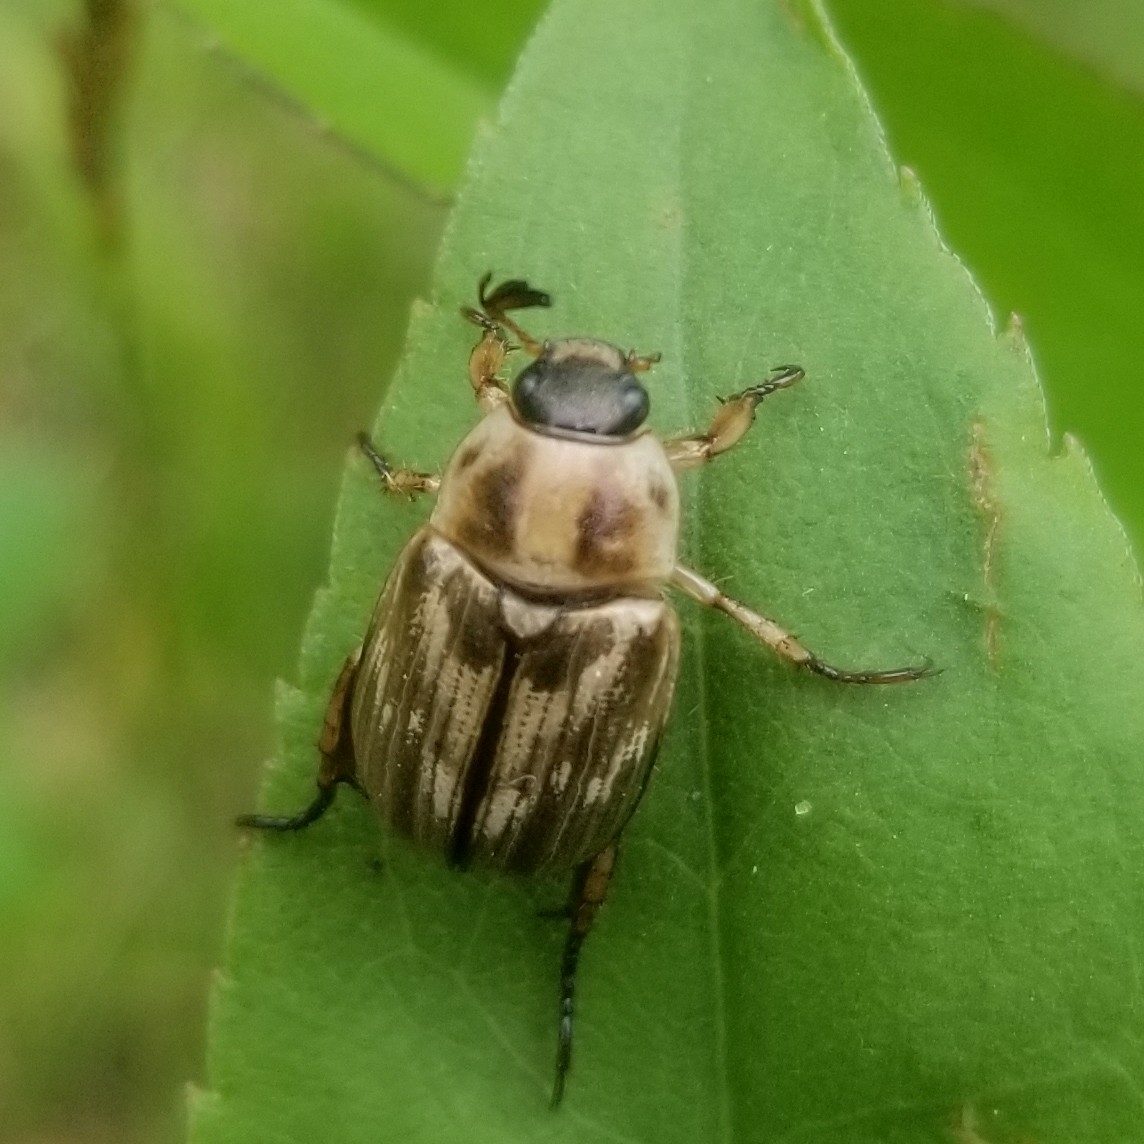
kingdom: Animalia
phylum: Arthropoda
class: Insecta
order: Coleoptera
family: Scarabaeidae
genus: Exomala
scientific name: Exomala orientalis
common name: Oriental beetle
